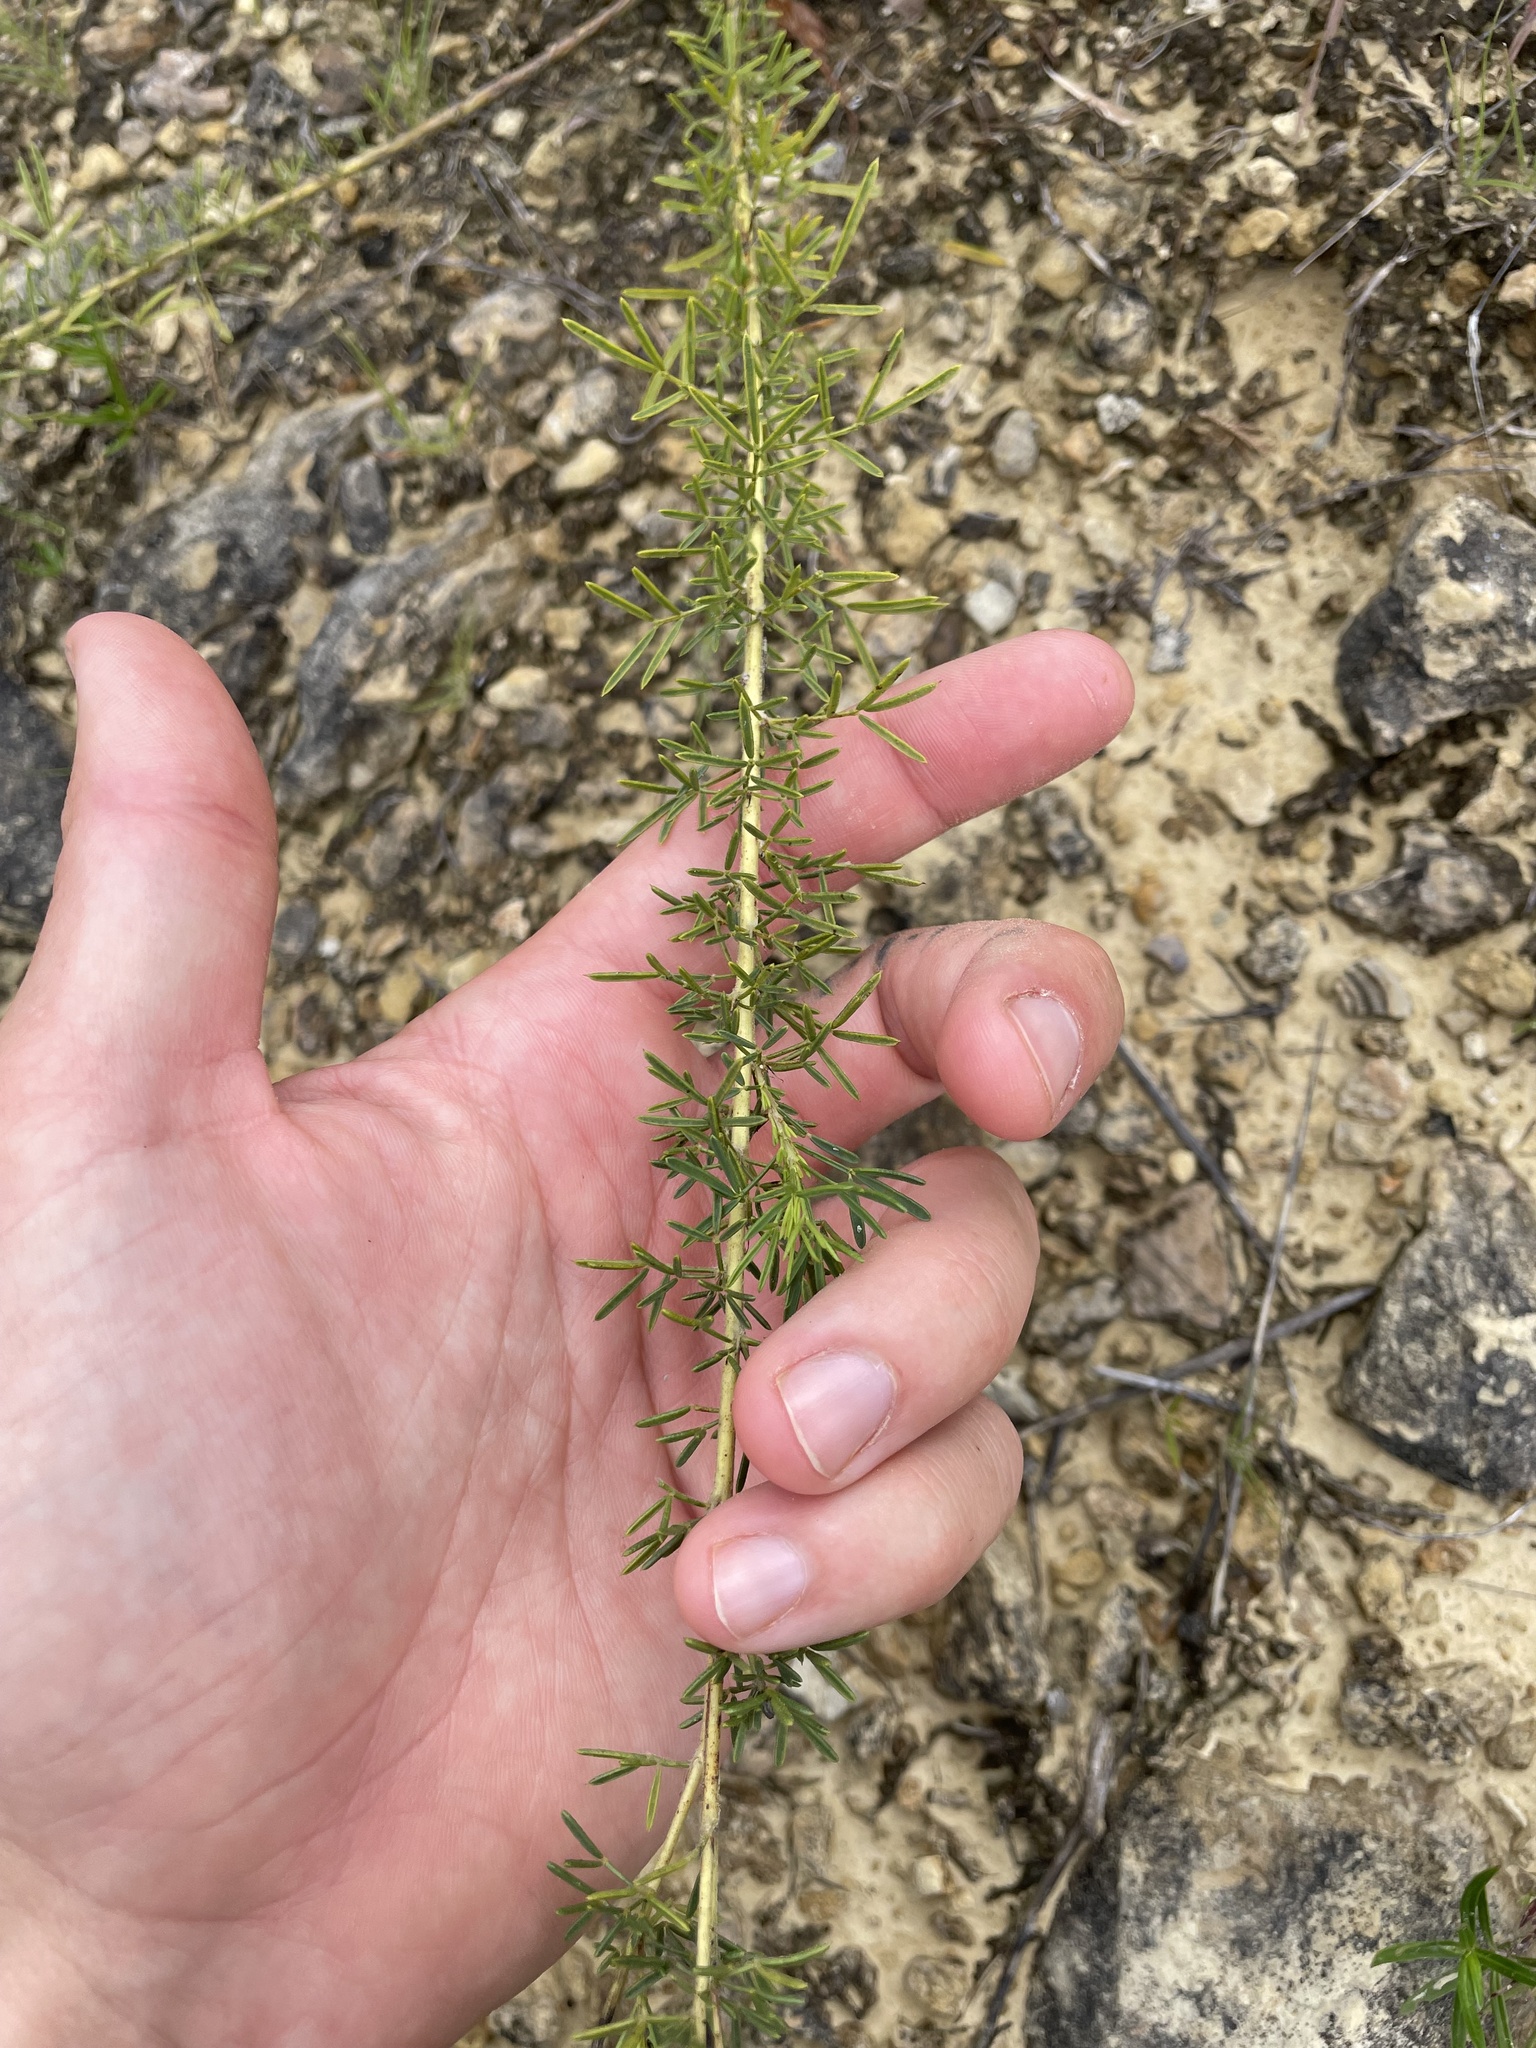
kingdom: Plantae
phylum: Tracheophyta
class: Magnoliopsida
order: Fabales
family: Fabaceae
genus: Dalea
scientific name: Dalea purpurea
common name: Purple prairie-clover
